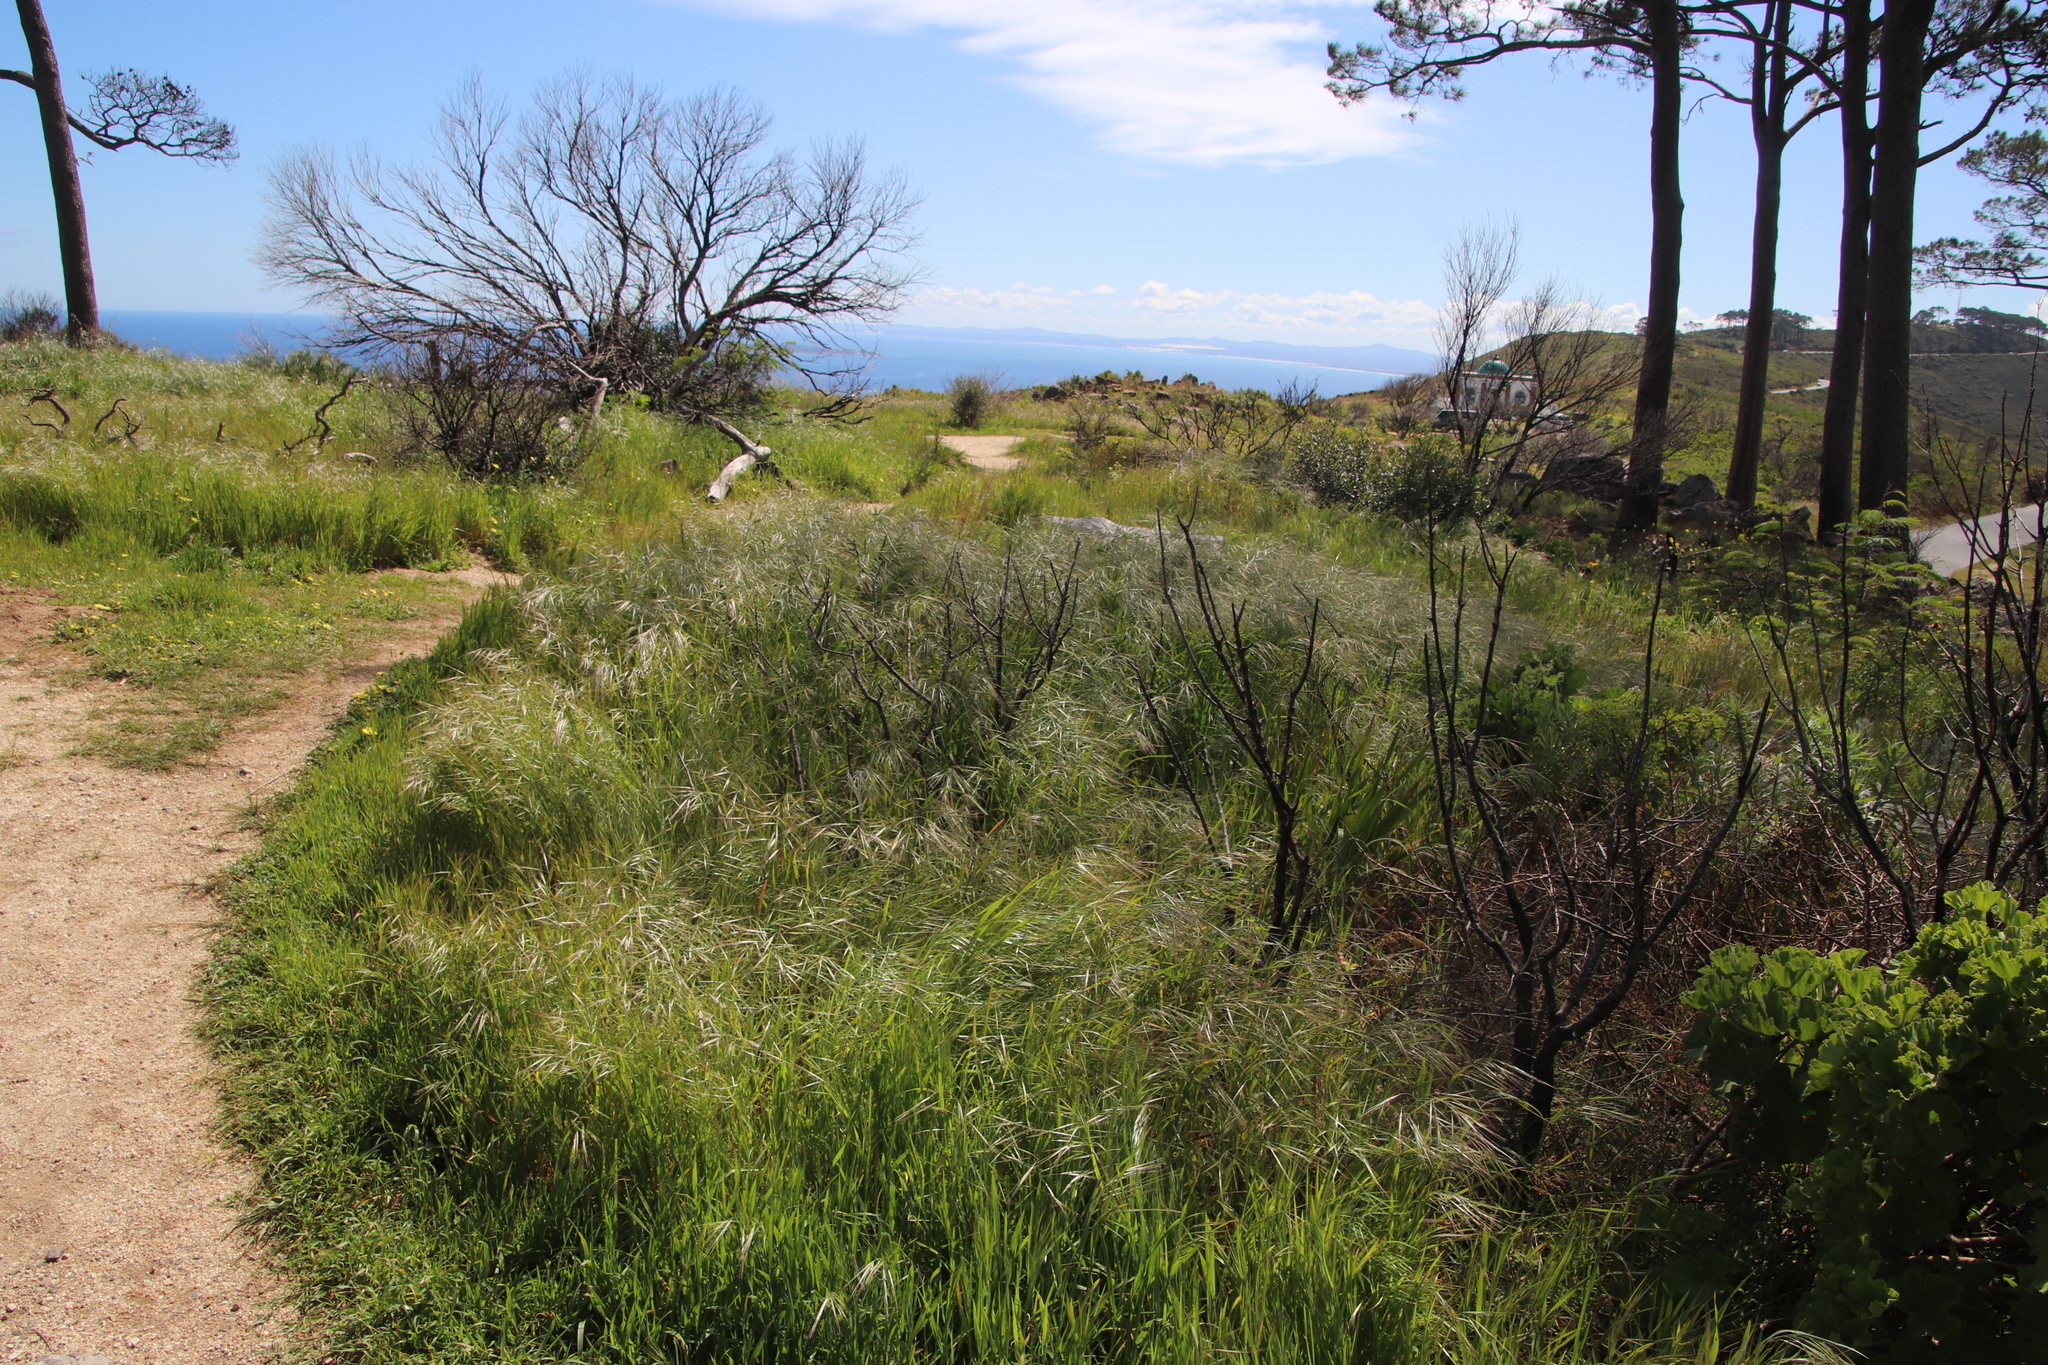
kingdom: Plantae
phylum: Tracheophyta
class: Liliopsida
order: Poales
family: Poaceae
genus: Bromus
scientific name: Bromus pectinatus
